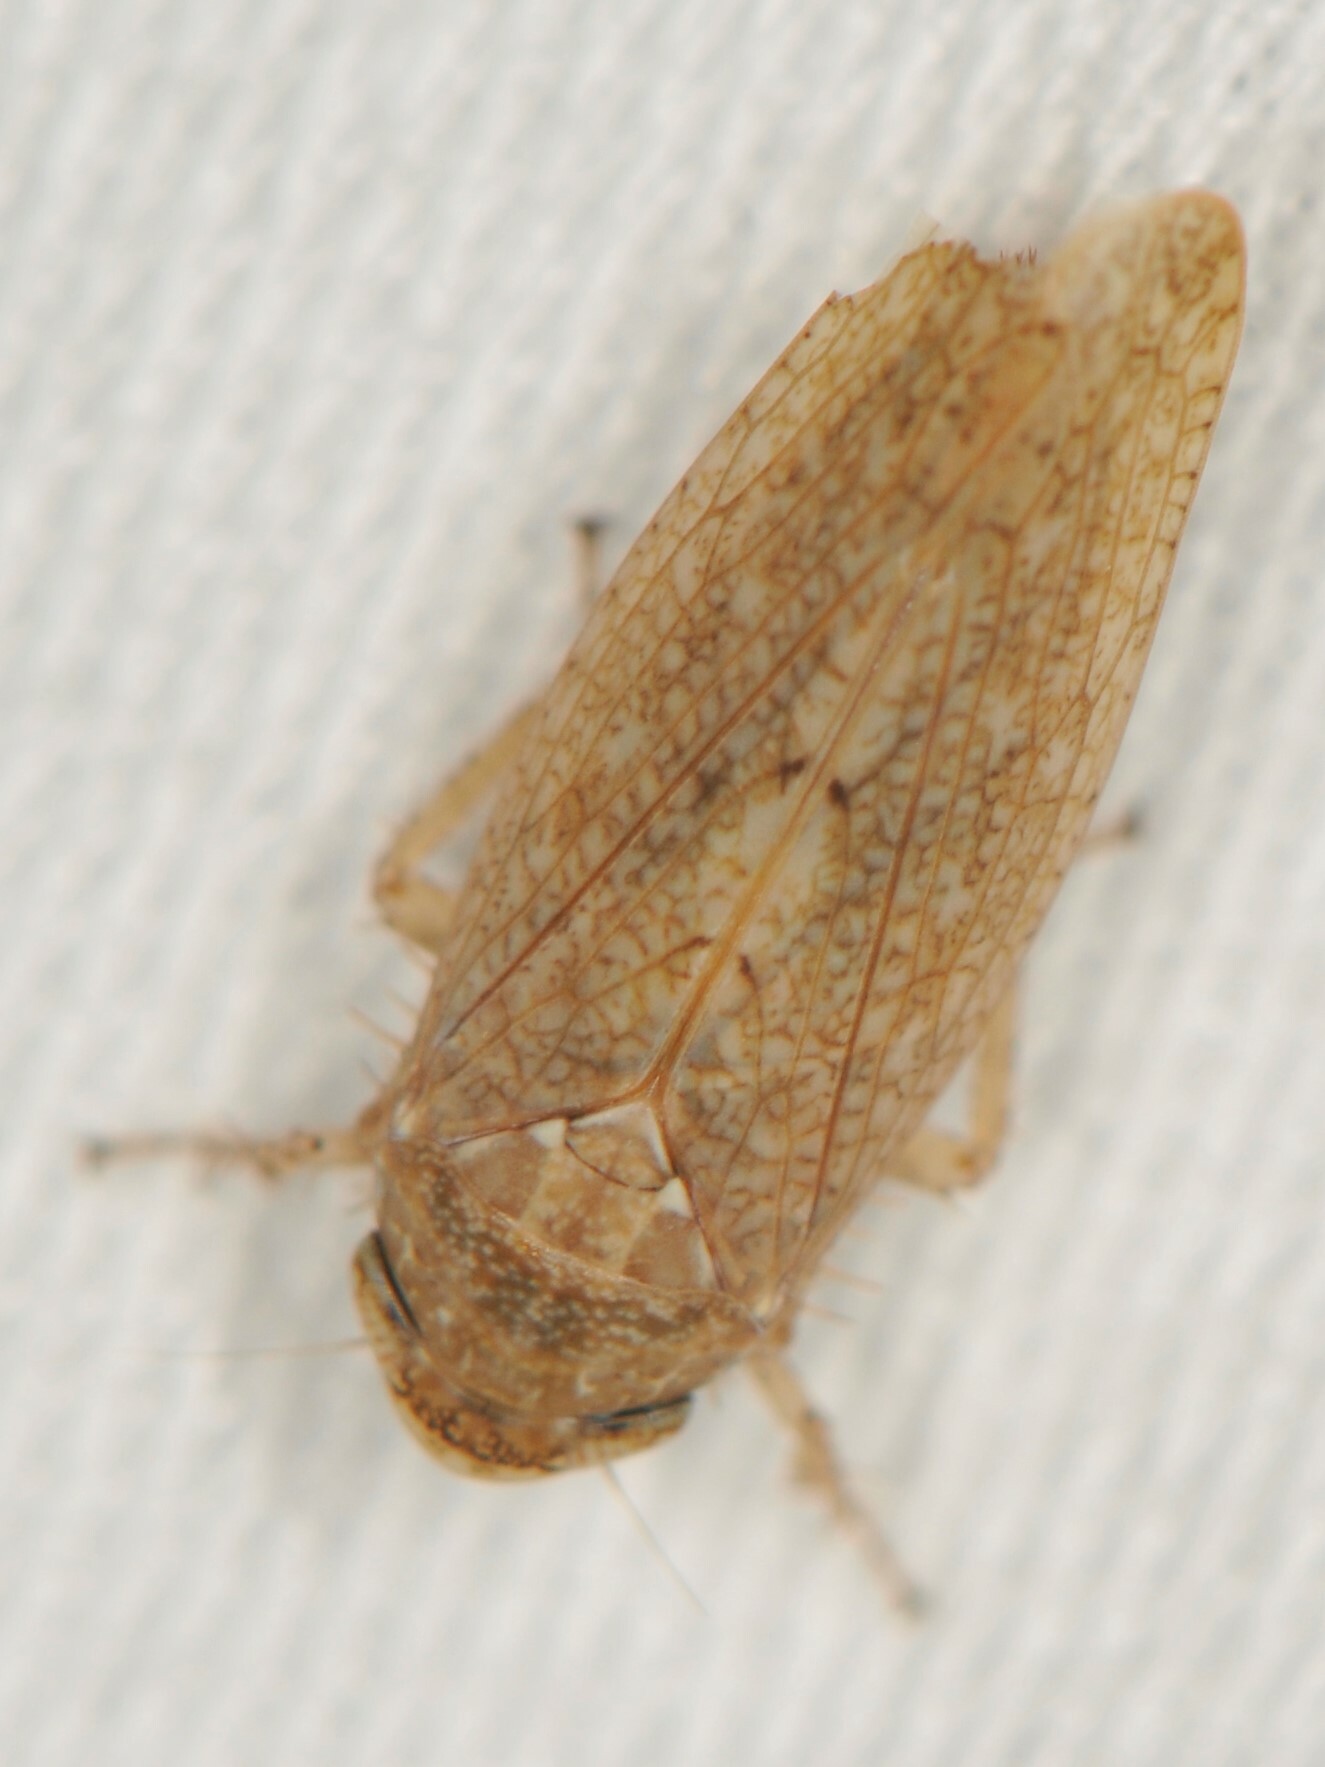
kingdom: Animalia
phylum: Arthropoda
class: Insecta
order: Hemiptera
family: Cicadellidae
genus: Texananus
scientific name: Texananus
